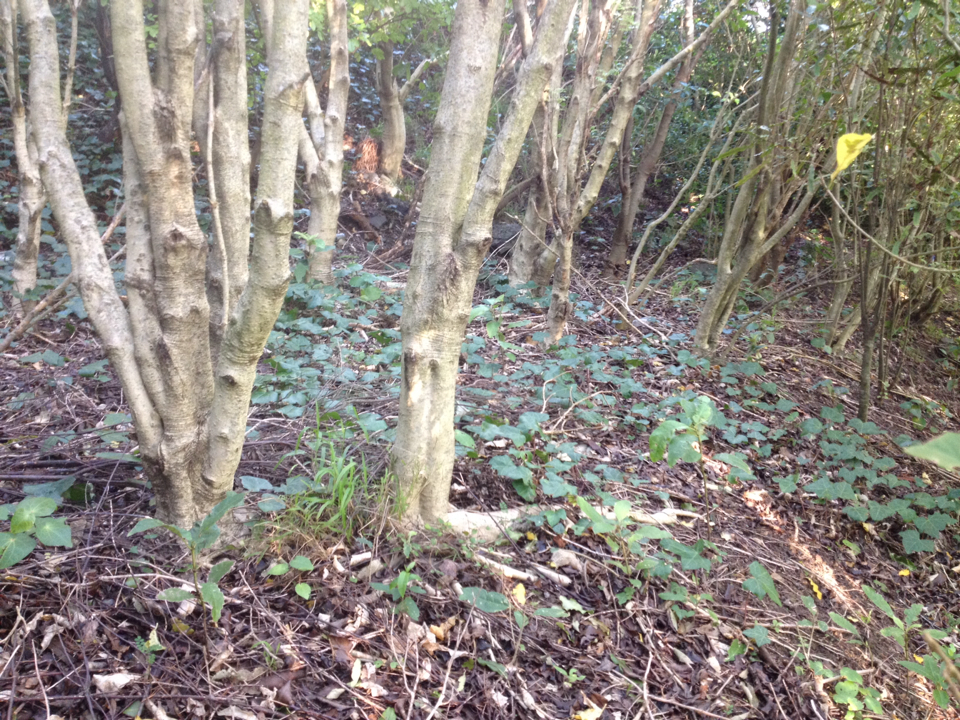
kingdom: Plantae
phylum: Tracheophyta
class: Magnoliopsida
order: Apiales
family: Araliaceae
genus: Hedera
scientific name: Hedera helix
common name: Ivy
